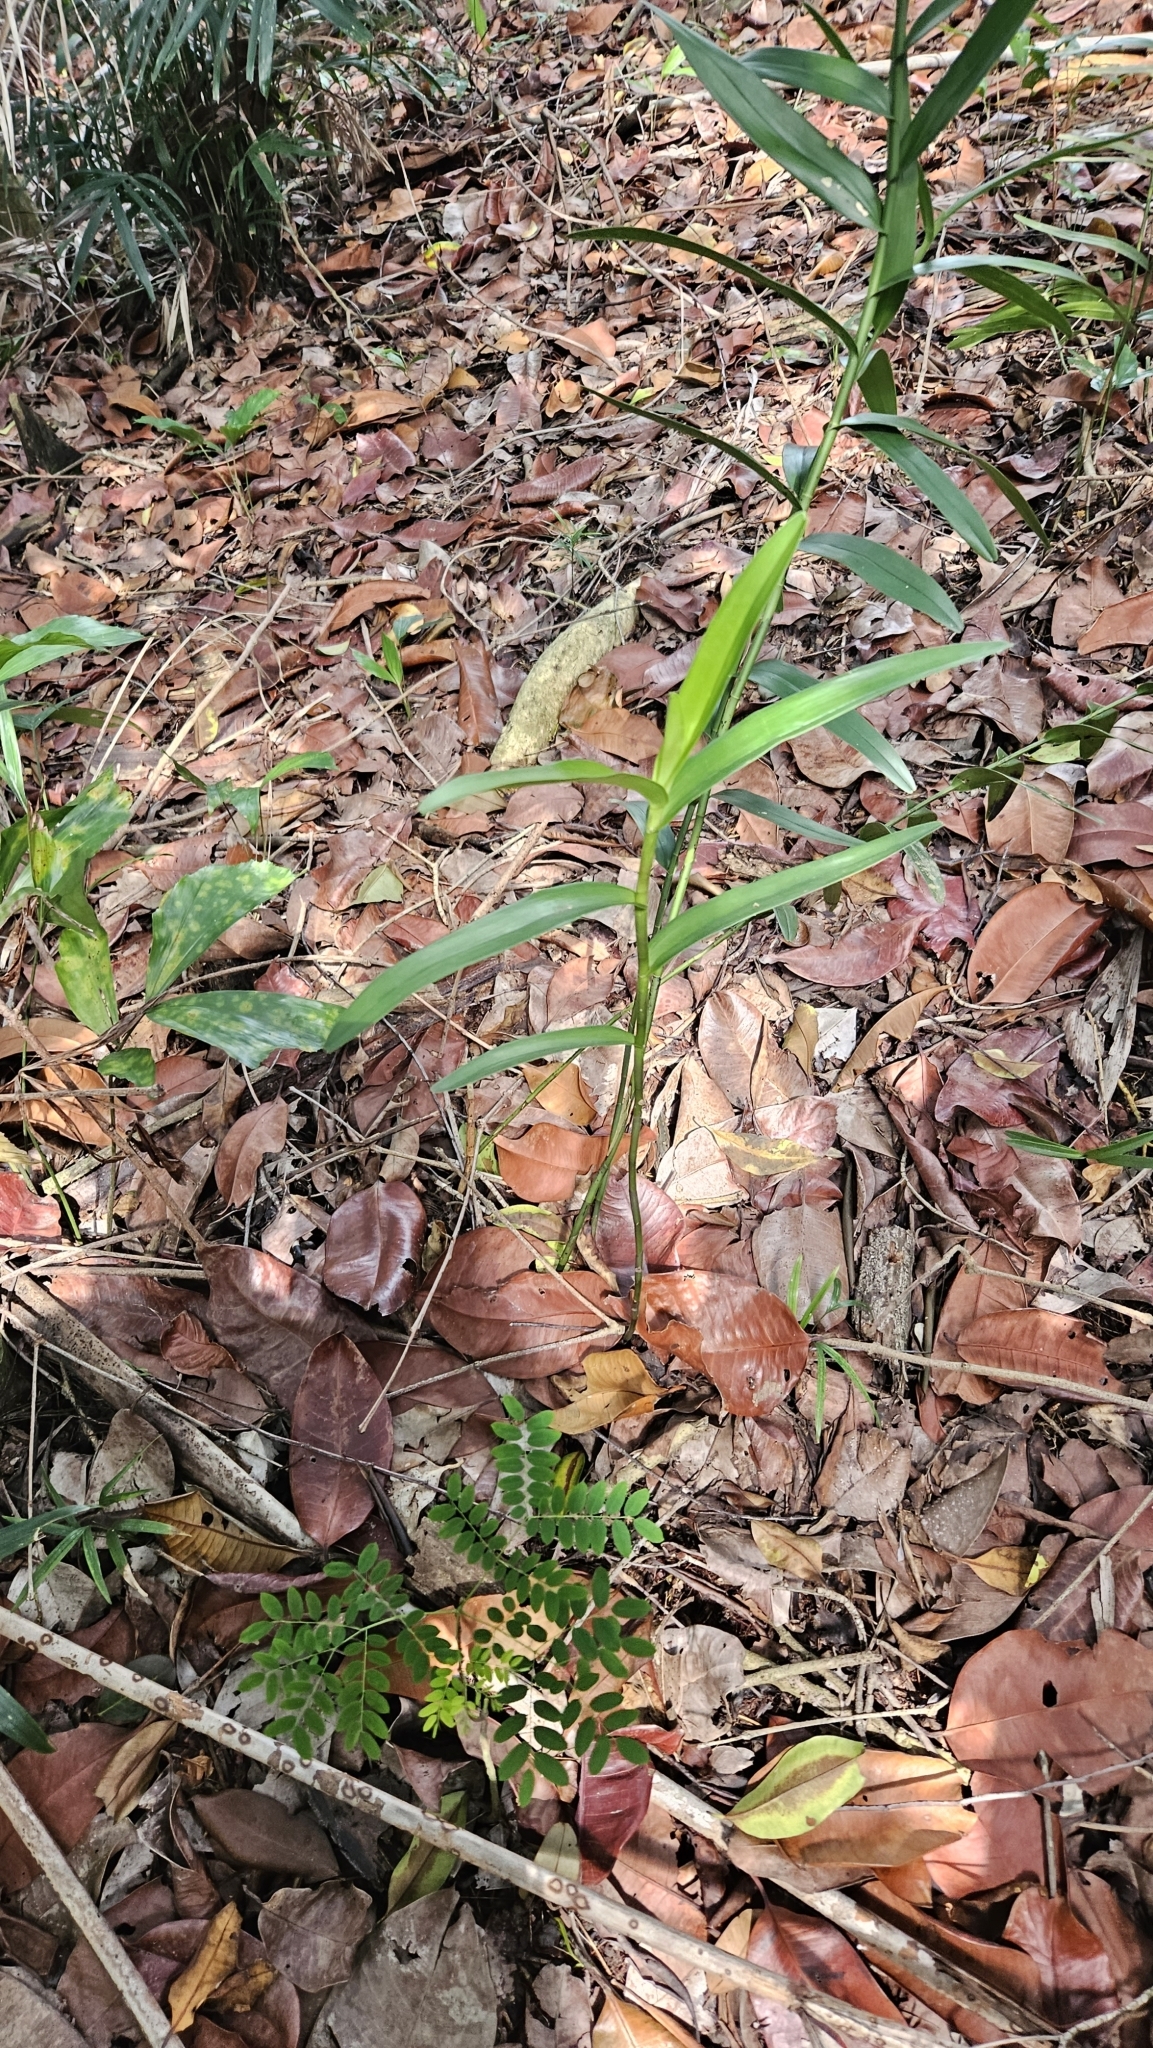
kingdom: Plantae
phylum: Tracheophyta
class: Liliopsida
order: Asparagales
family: Orchidaceae
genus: Bromheadia
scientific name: Bromheadia finlaysoniana
